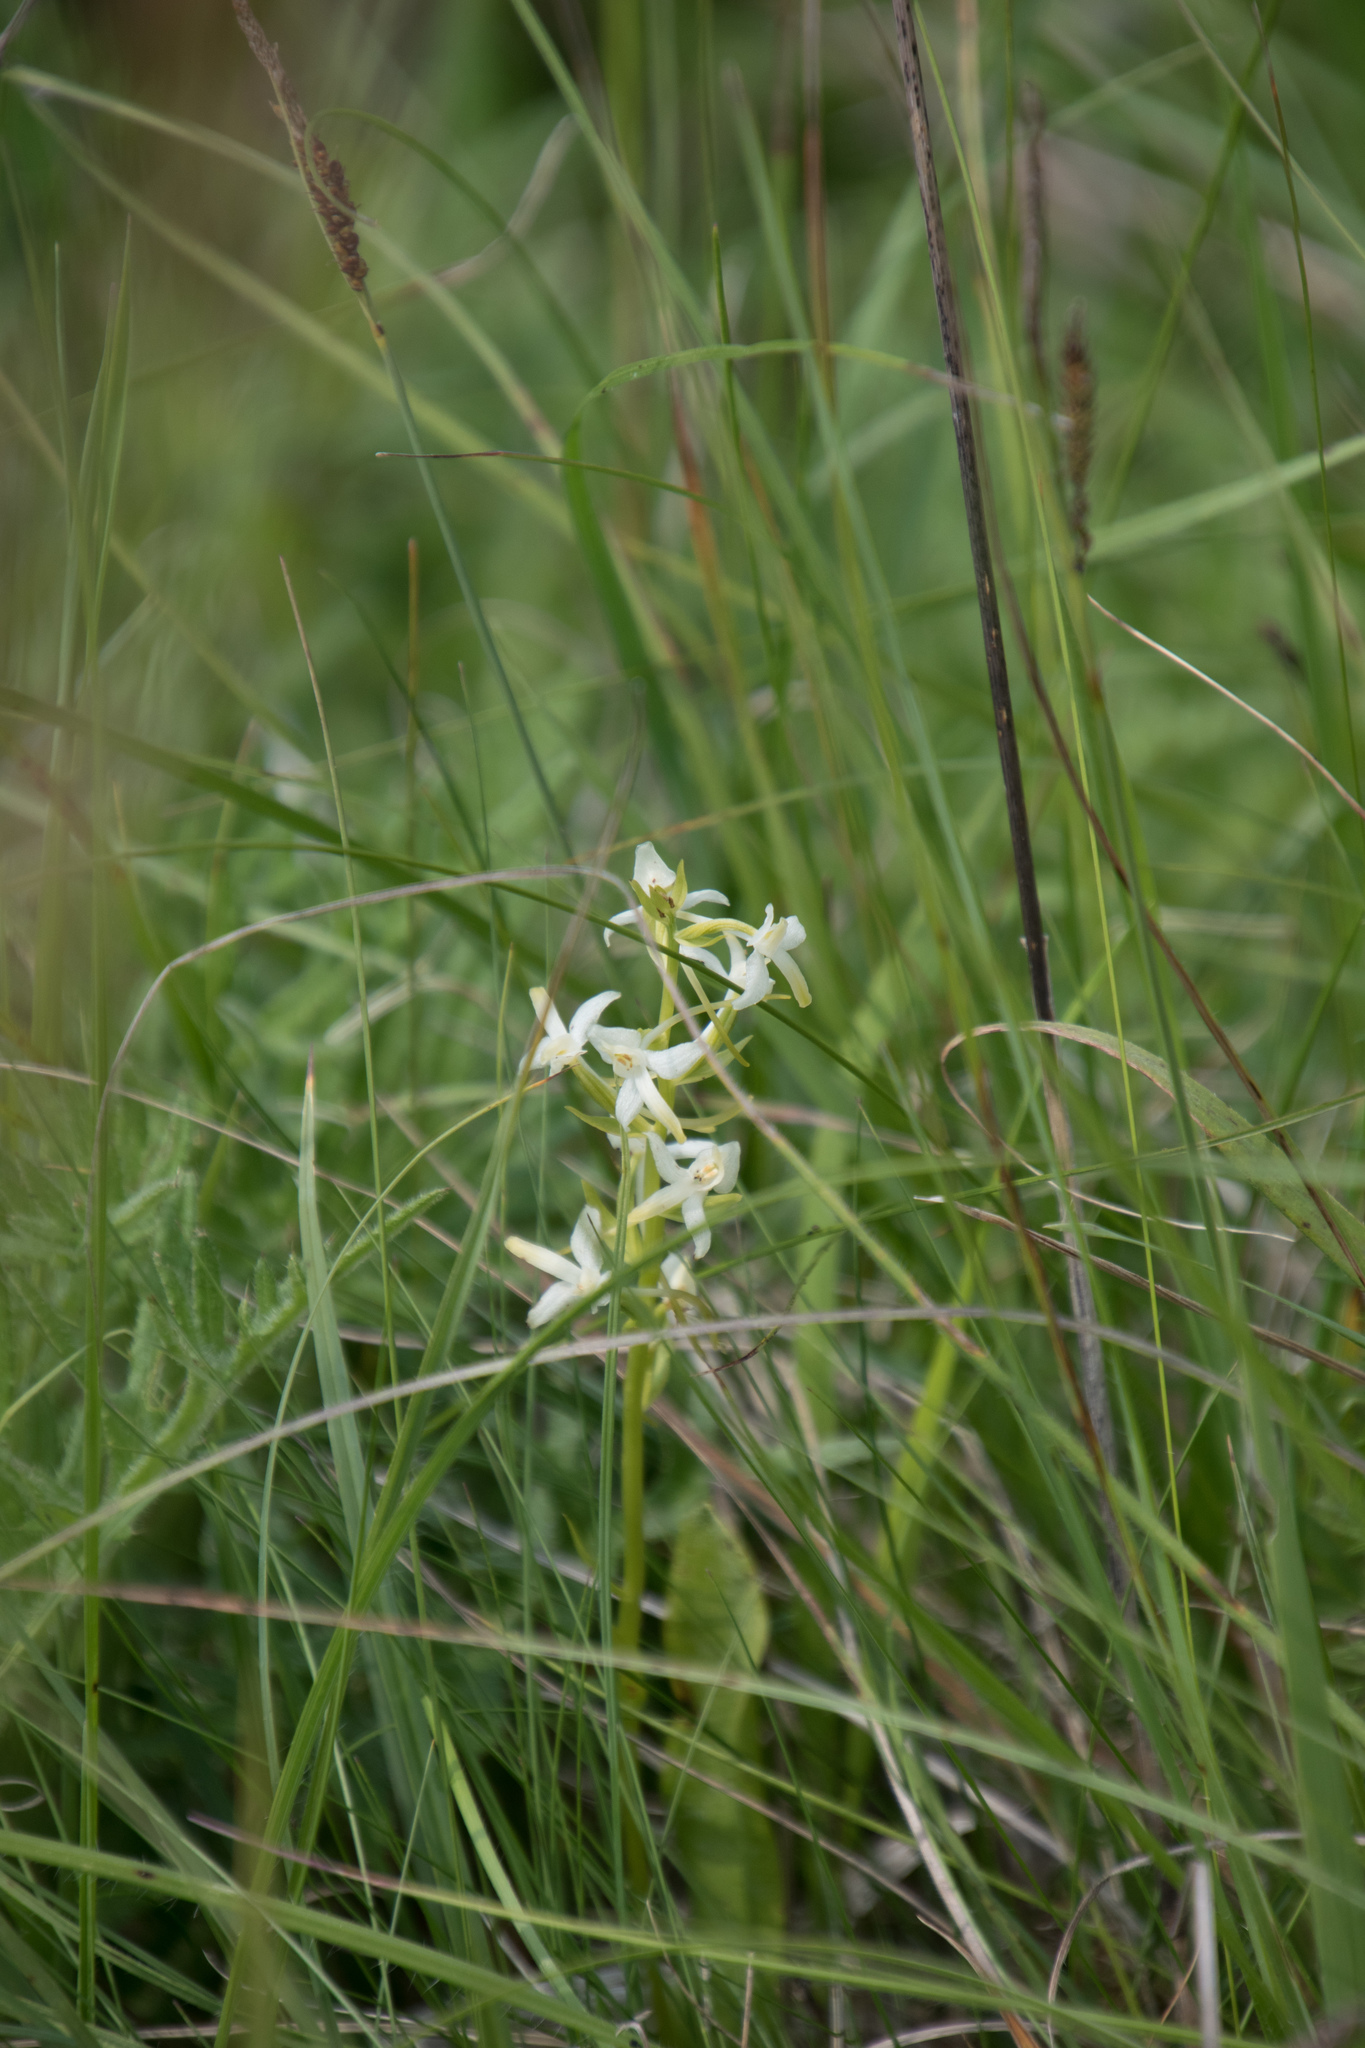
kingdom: Plantae
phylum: Tracheophyta
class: Liliopsida
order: Asparagales
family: Orchidaceae
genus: Platanthera
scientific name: Platanthera bifolia
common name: Lesser butterfly-orchid
